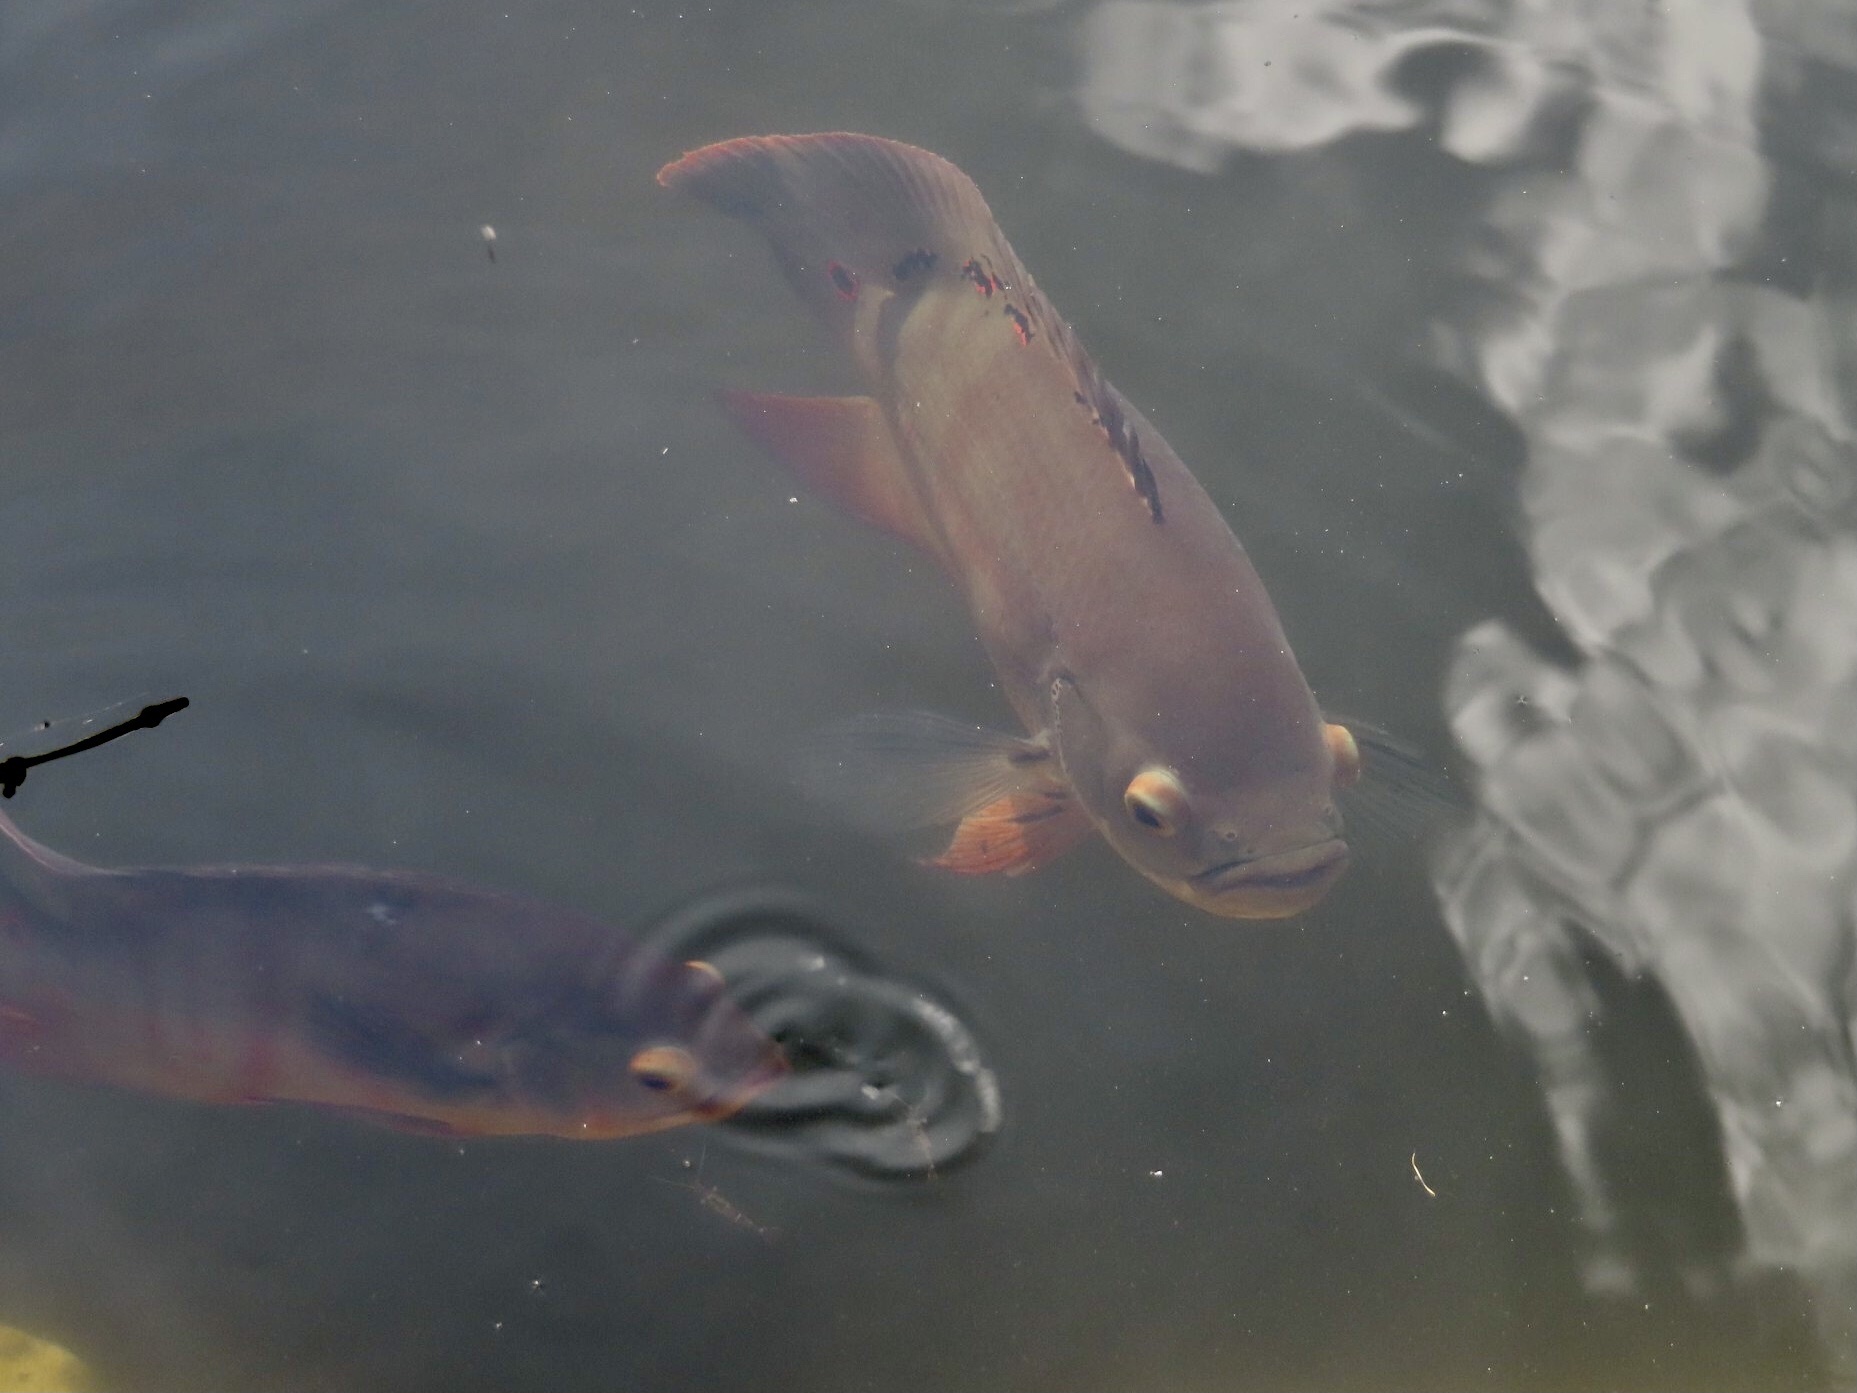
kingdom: Animalia
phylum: Chordata
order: Perciformes
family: Cichlidae
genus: Astronotus
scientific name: Astronotus ocellatus
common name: Oscar
